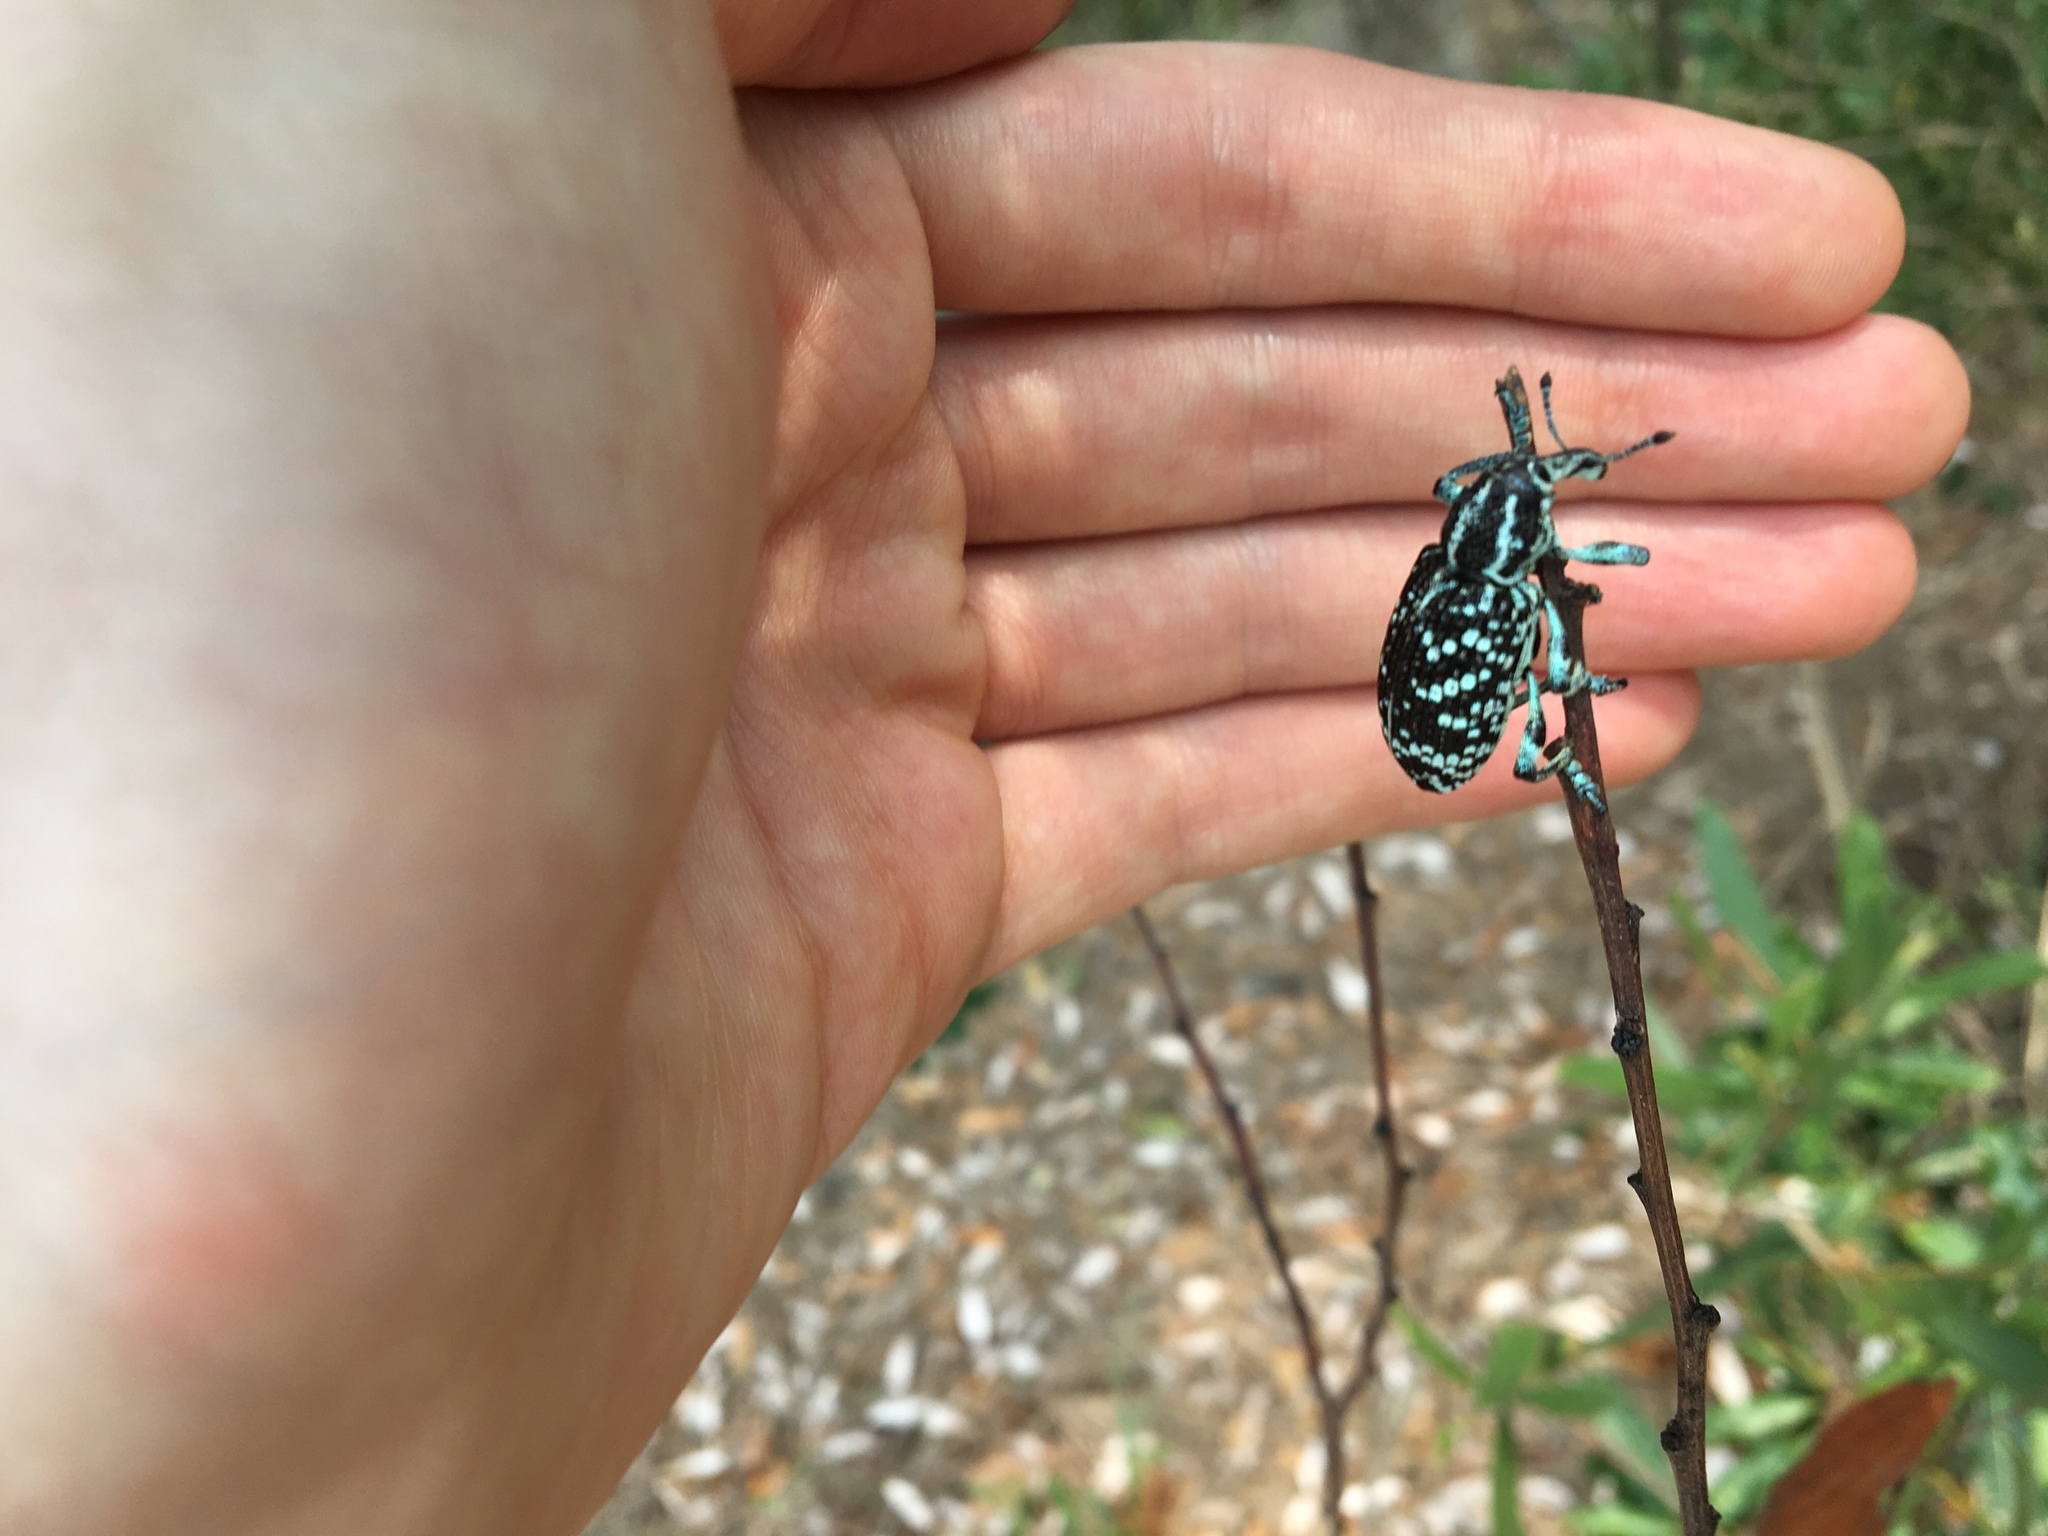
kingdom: Animalia
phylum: Arthropoda
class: Insecta
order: Coleoptera
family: Curculionidae
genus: Chrysolopus
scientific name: Chrysolopus spectabilis
